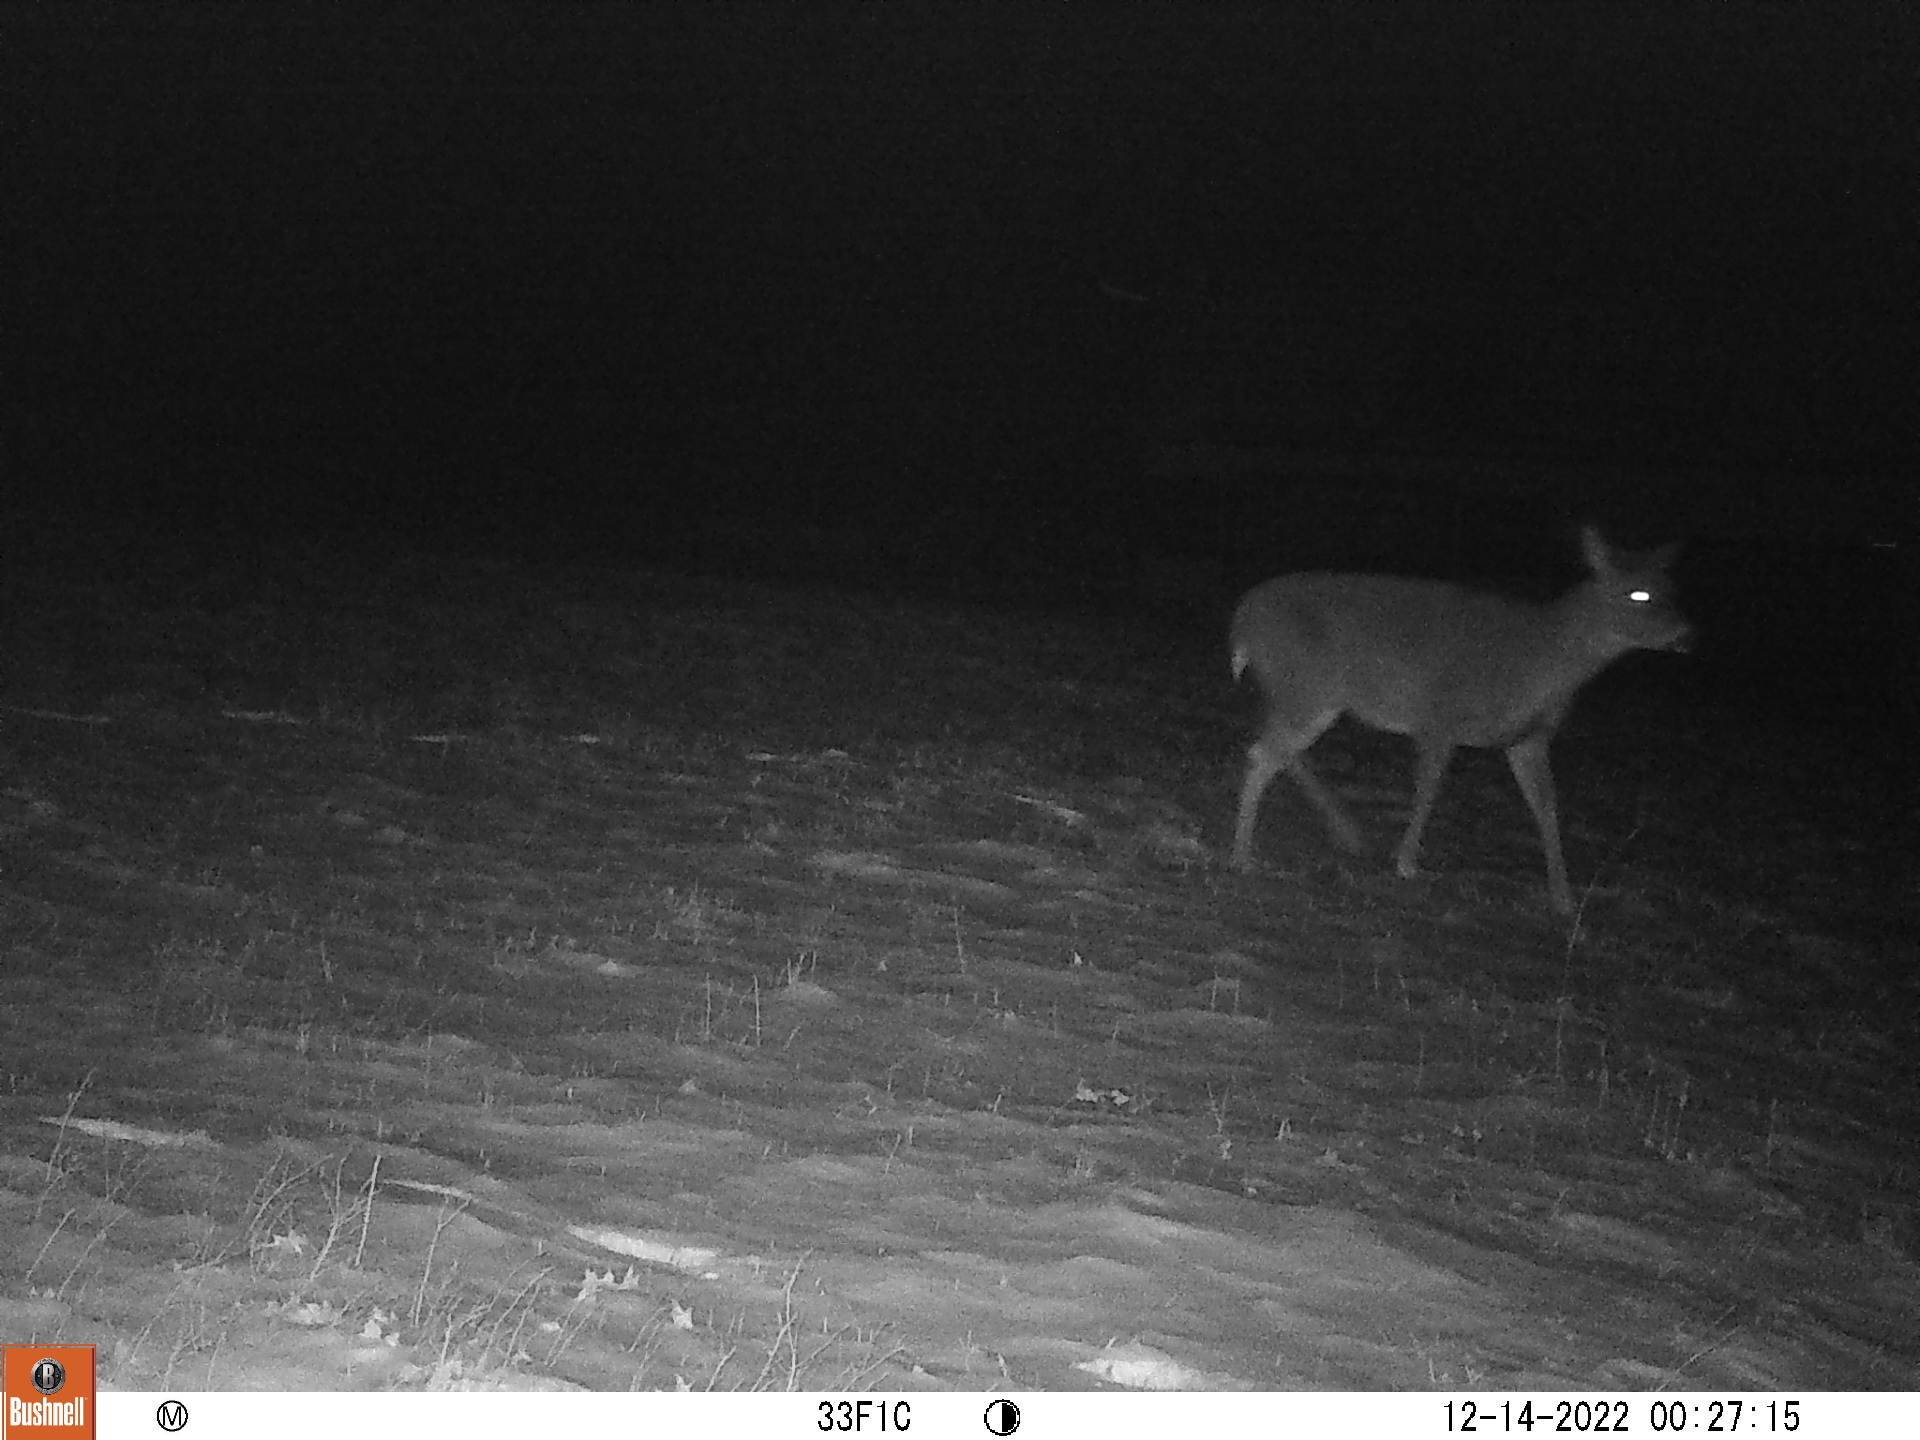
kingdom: Animalia
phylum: Chordata
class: Mammalia
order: Artiodactyla
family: Cervidae
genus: Odocoileus
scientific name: Odocoileus virginianus
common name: White-tailed deer
